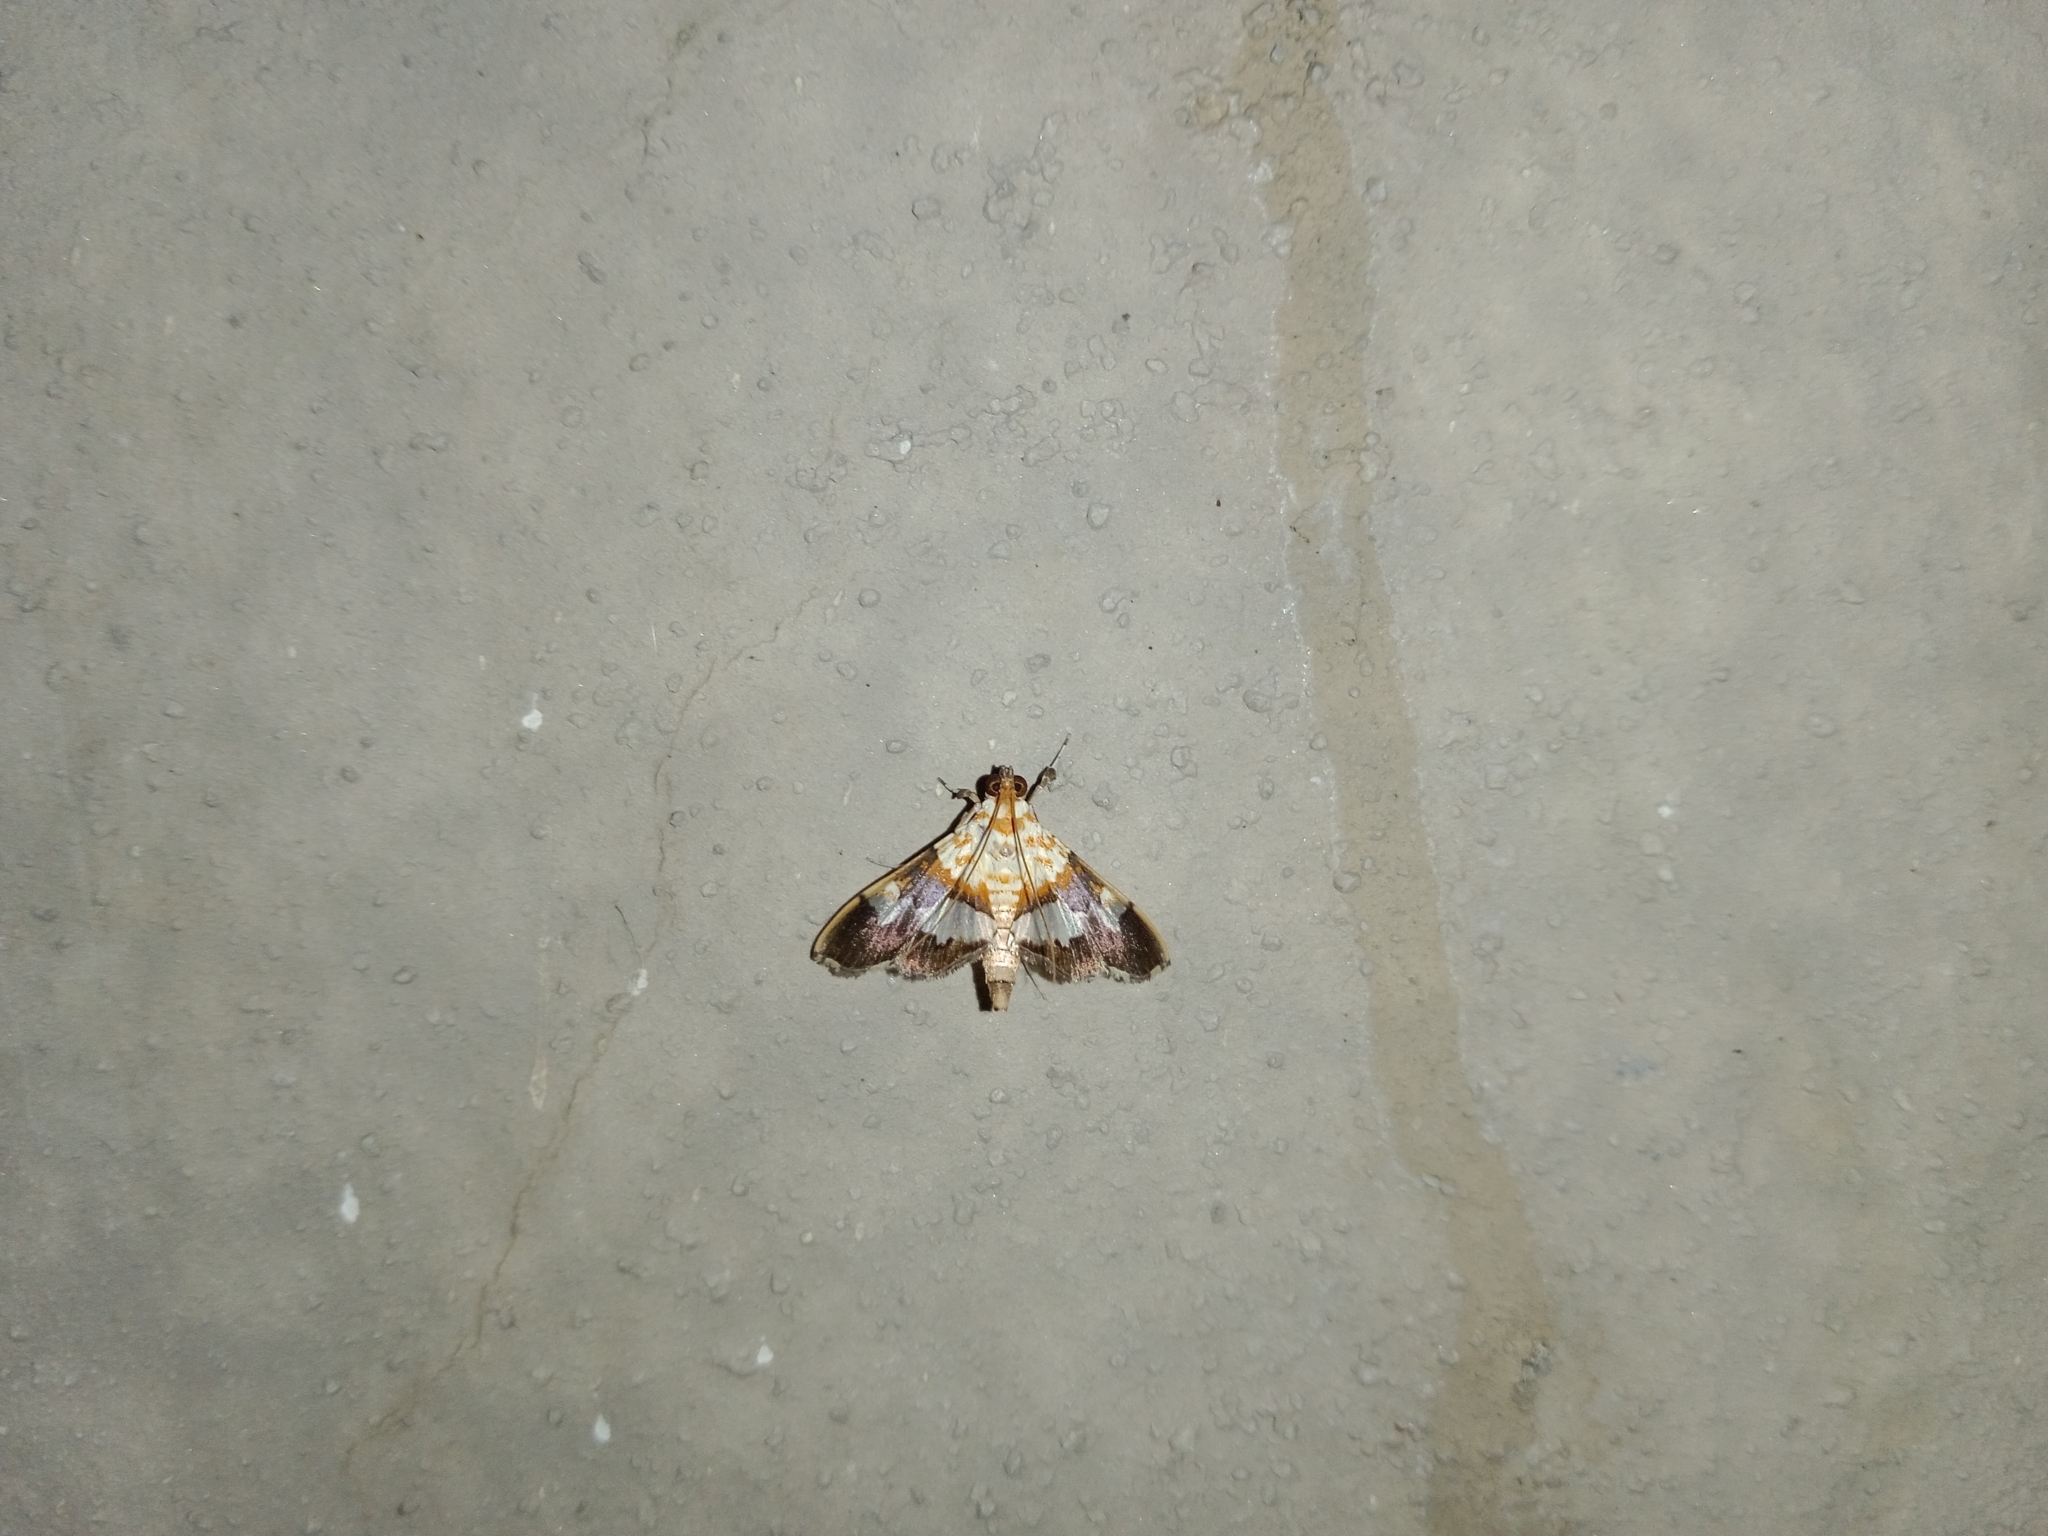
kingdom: Animalia
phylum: Arthropoda
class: Insecta
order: Lepidoptera
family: Crambidae
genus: Aetholix
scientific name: Aetholix flavibasalis
